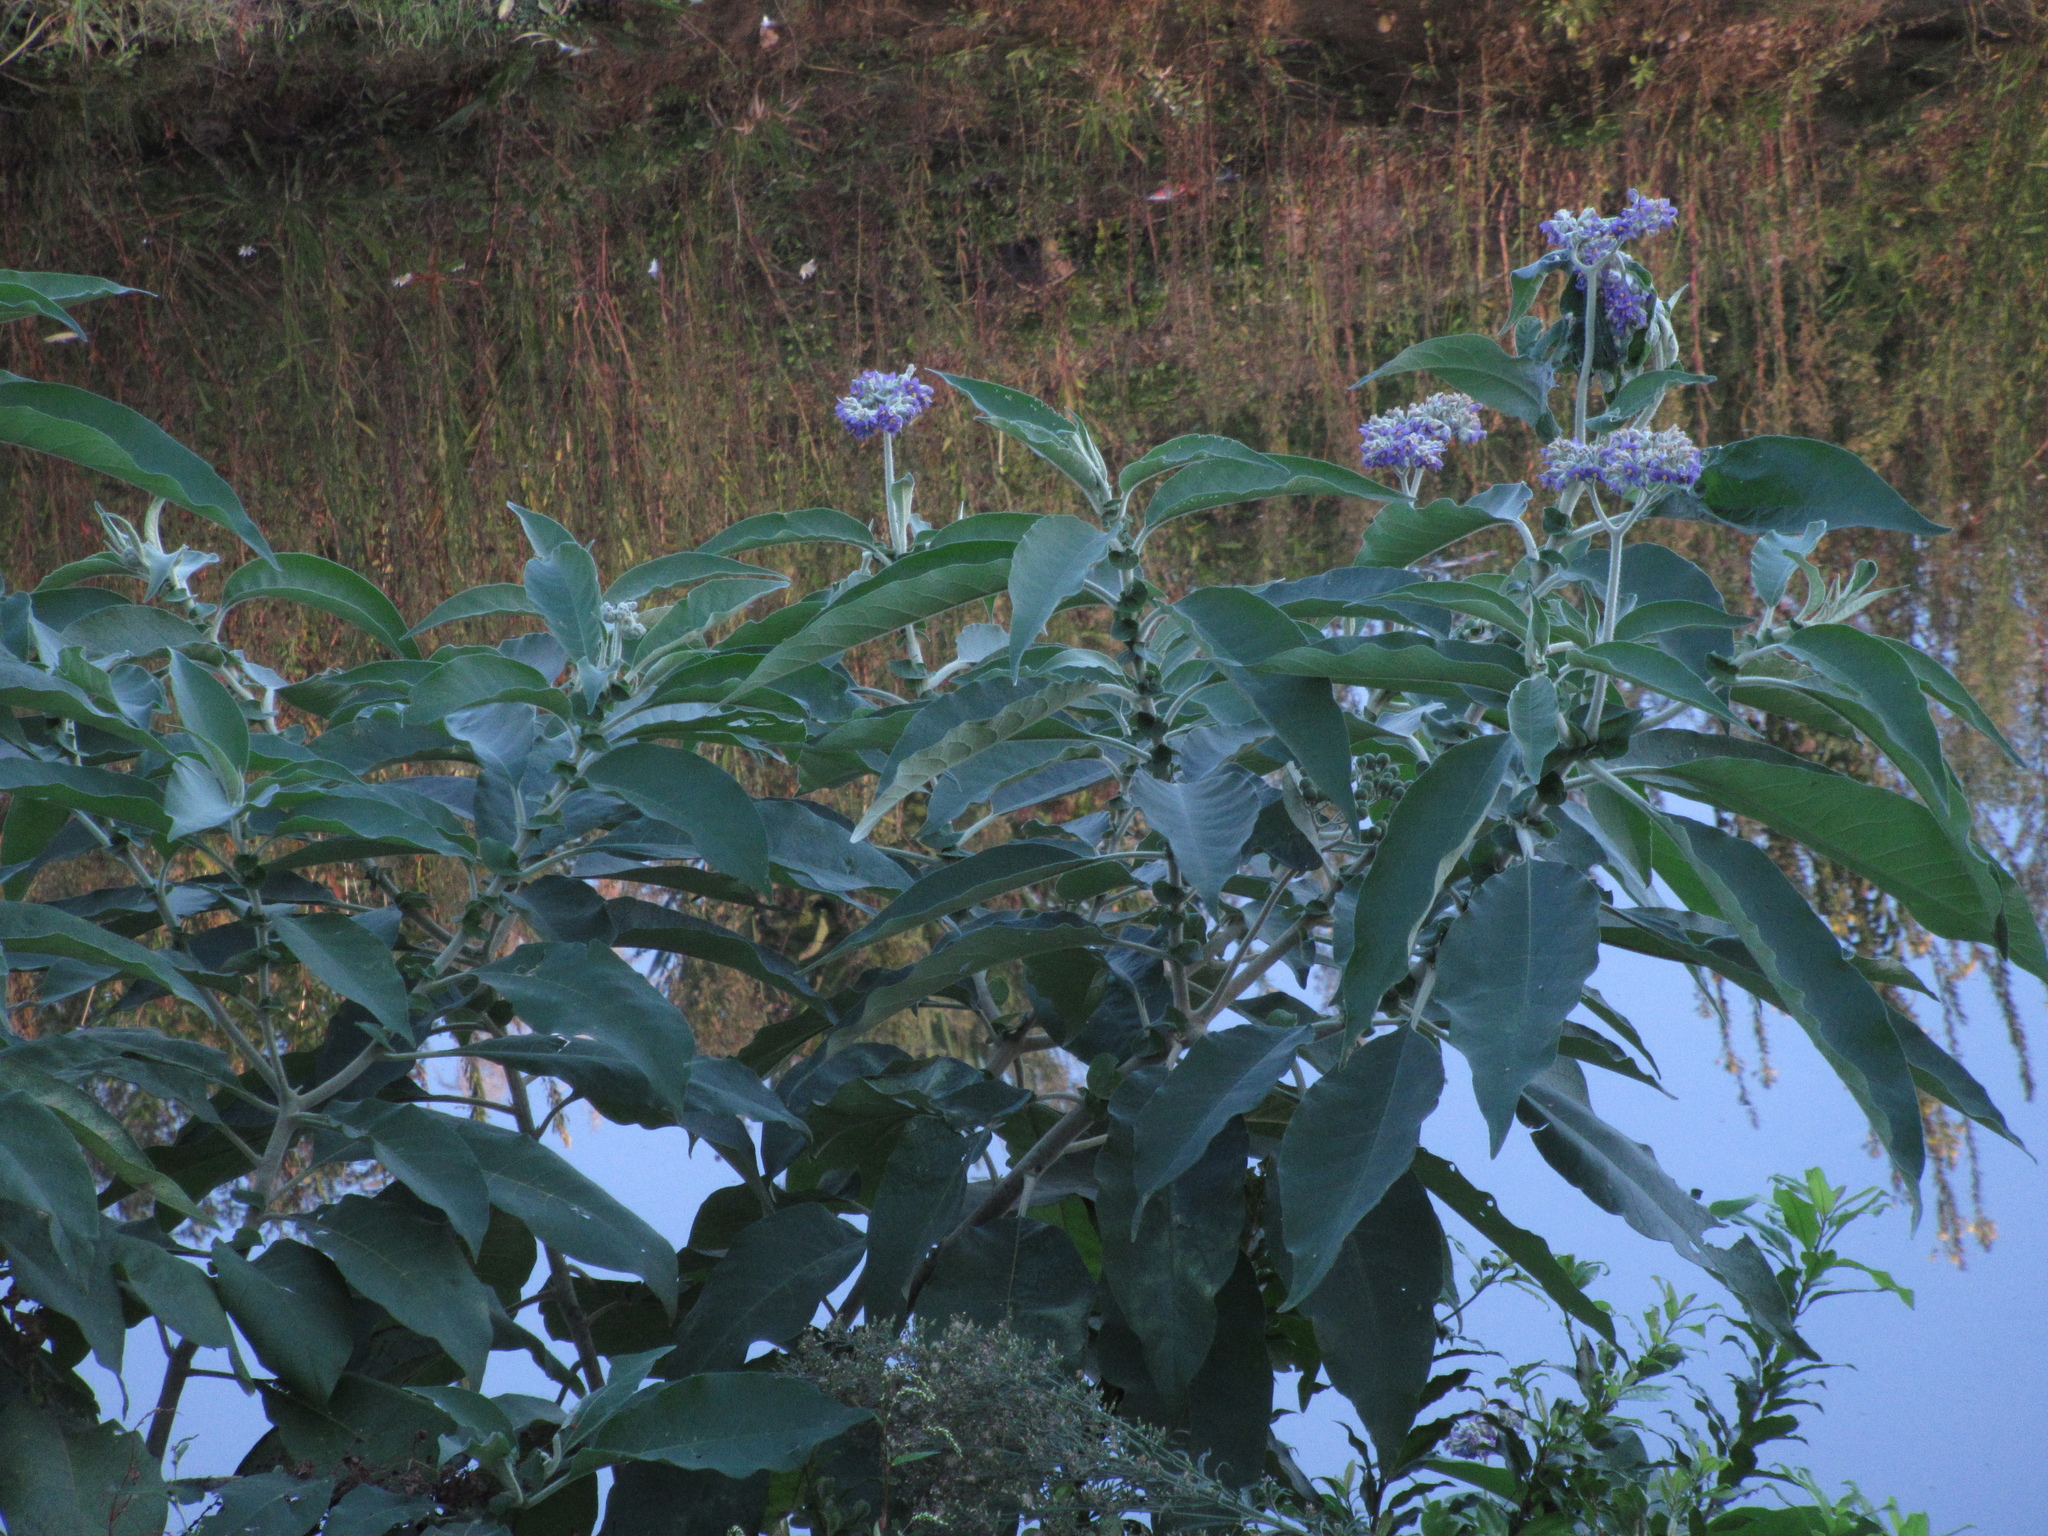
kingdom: Plantae
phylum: Tracheophyta
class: Magnoliopsida
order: Solanales
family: Solanaceae
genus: Solanum
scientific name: Solanum mauritianum
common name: Earleaf nightshade
